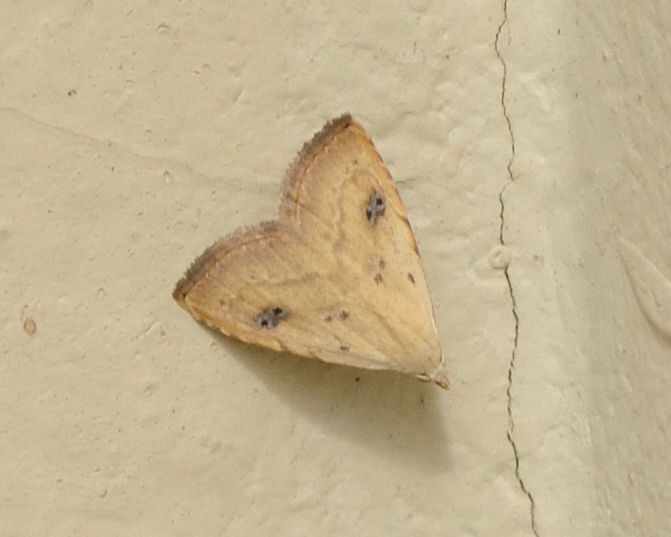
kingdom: Animalia
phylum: Arthropoda
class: Insecta
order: Lepidoptera
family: Erebidae
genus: Rivula
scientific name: Rivula sericealis
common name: Straw dot
